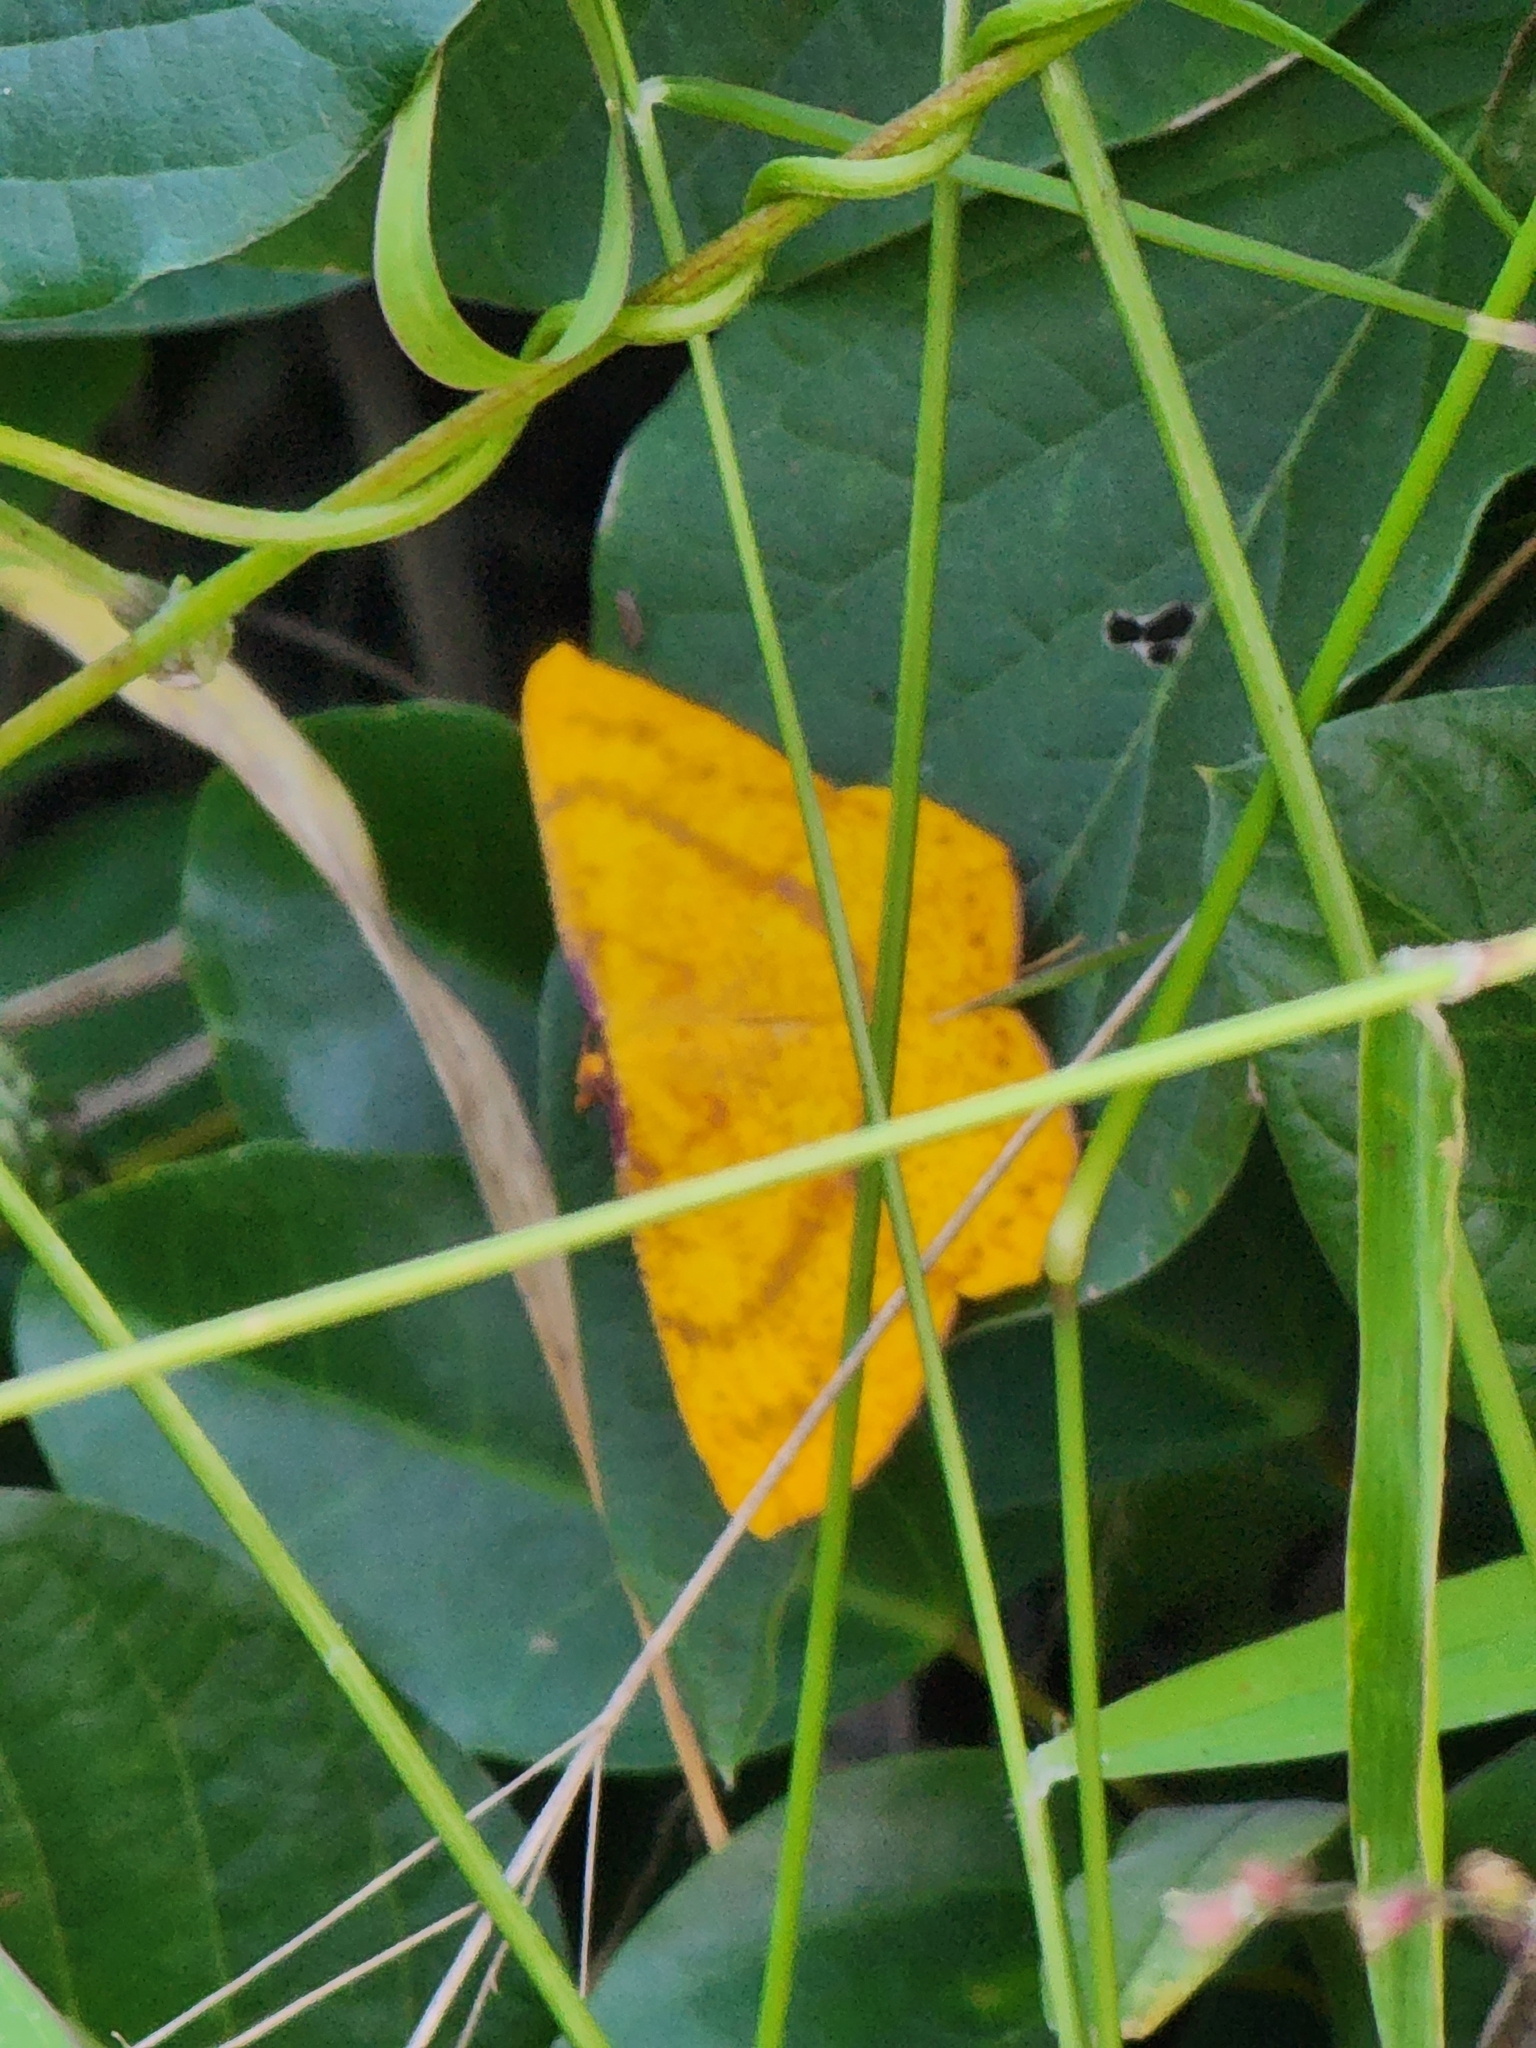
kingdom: Animalia
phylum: Arthropoda
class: Insecta
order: Lepidoptera
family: Geometridae
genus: Eumelea
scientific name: Eumelea rosalia
